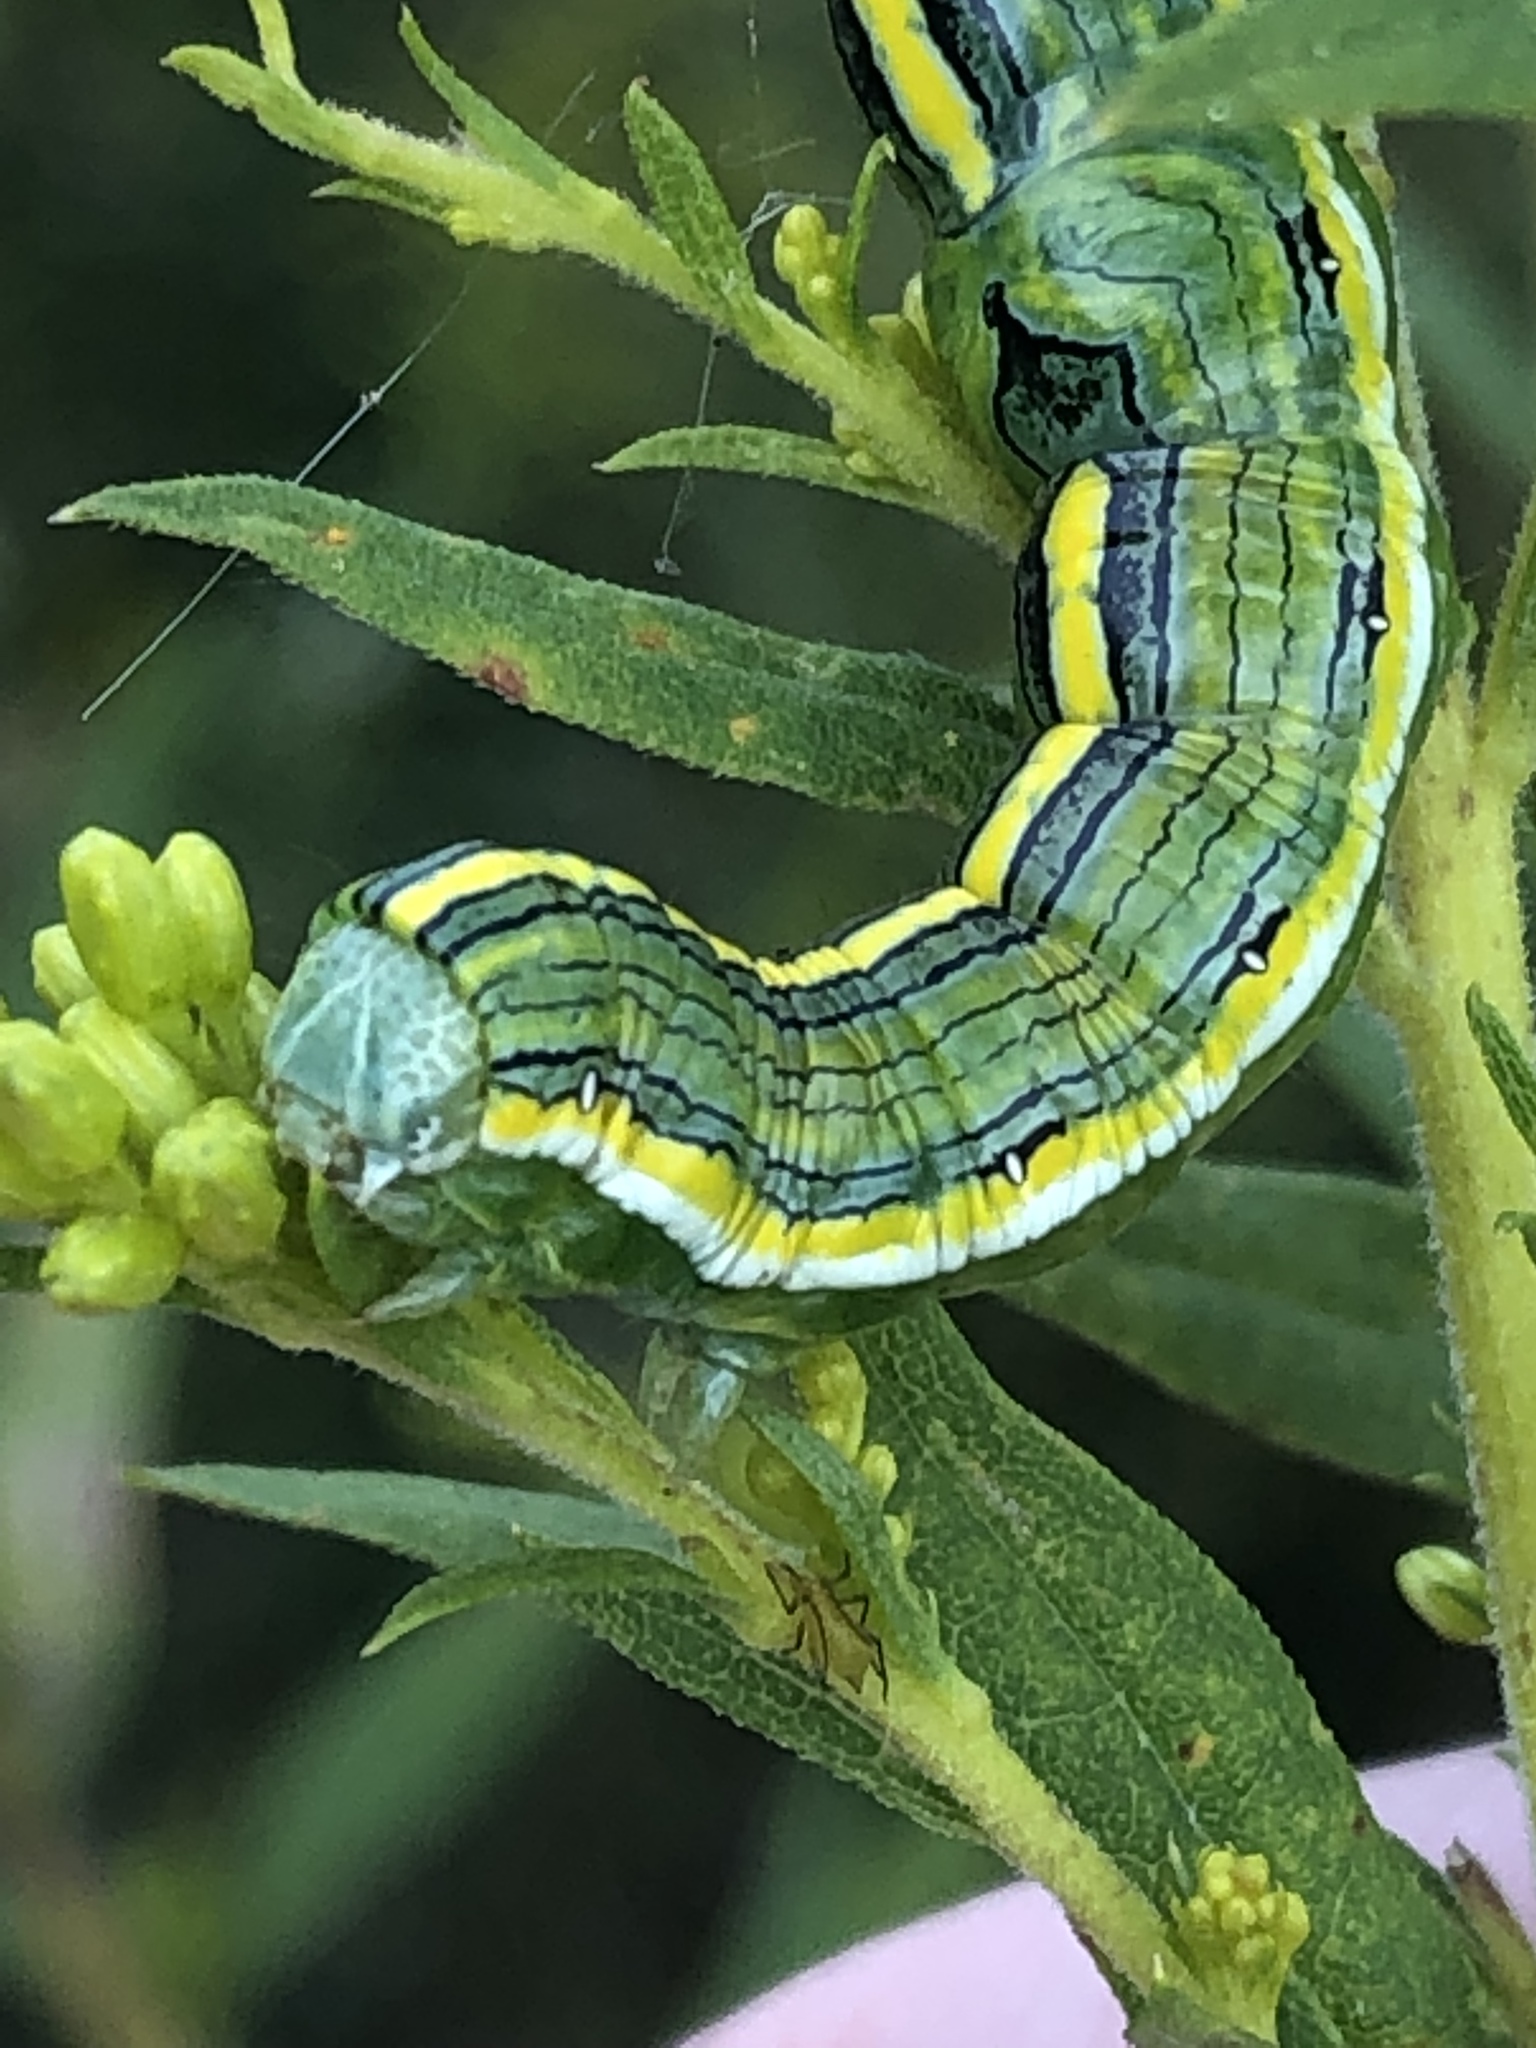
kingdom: Animalia
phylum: Arthropoda
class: Insecta
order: Lepidoptera
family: Noctuidae
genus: Cucullia
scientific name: Cucullia asteroides
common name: Asteroid moth
